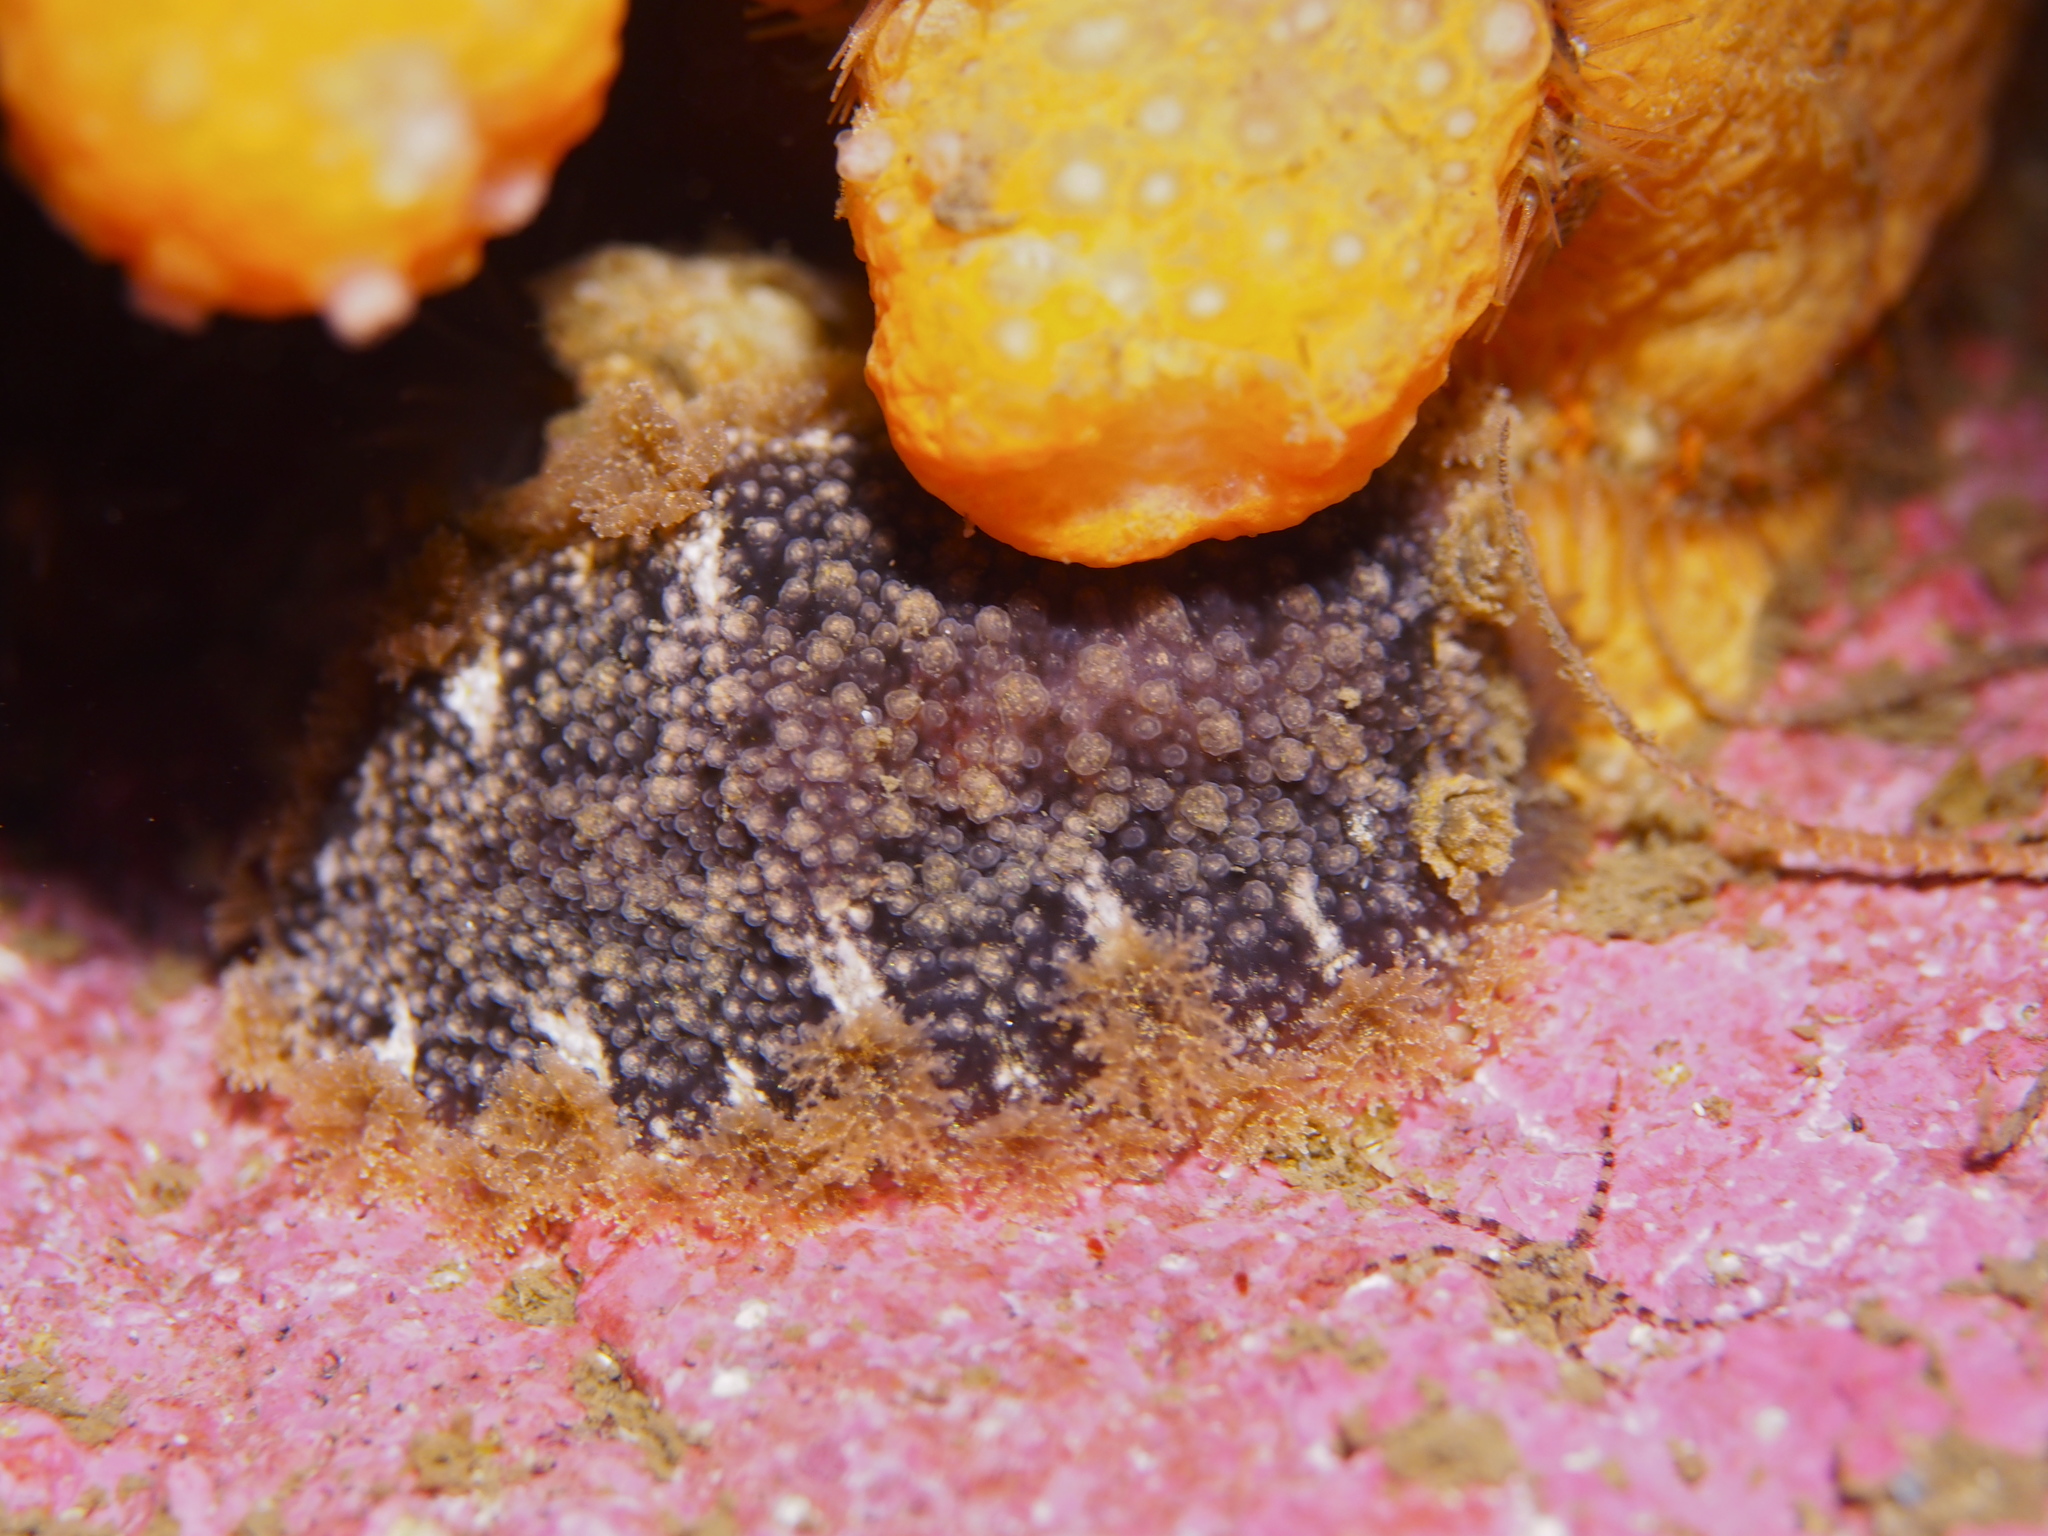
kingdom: Animalia
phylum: Mollusca
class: Gastropoda
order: Nudibranchia
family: Tritoniidae
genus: Tritonia
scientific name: Tritonia hombergii
